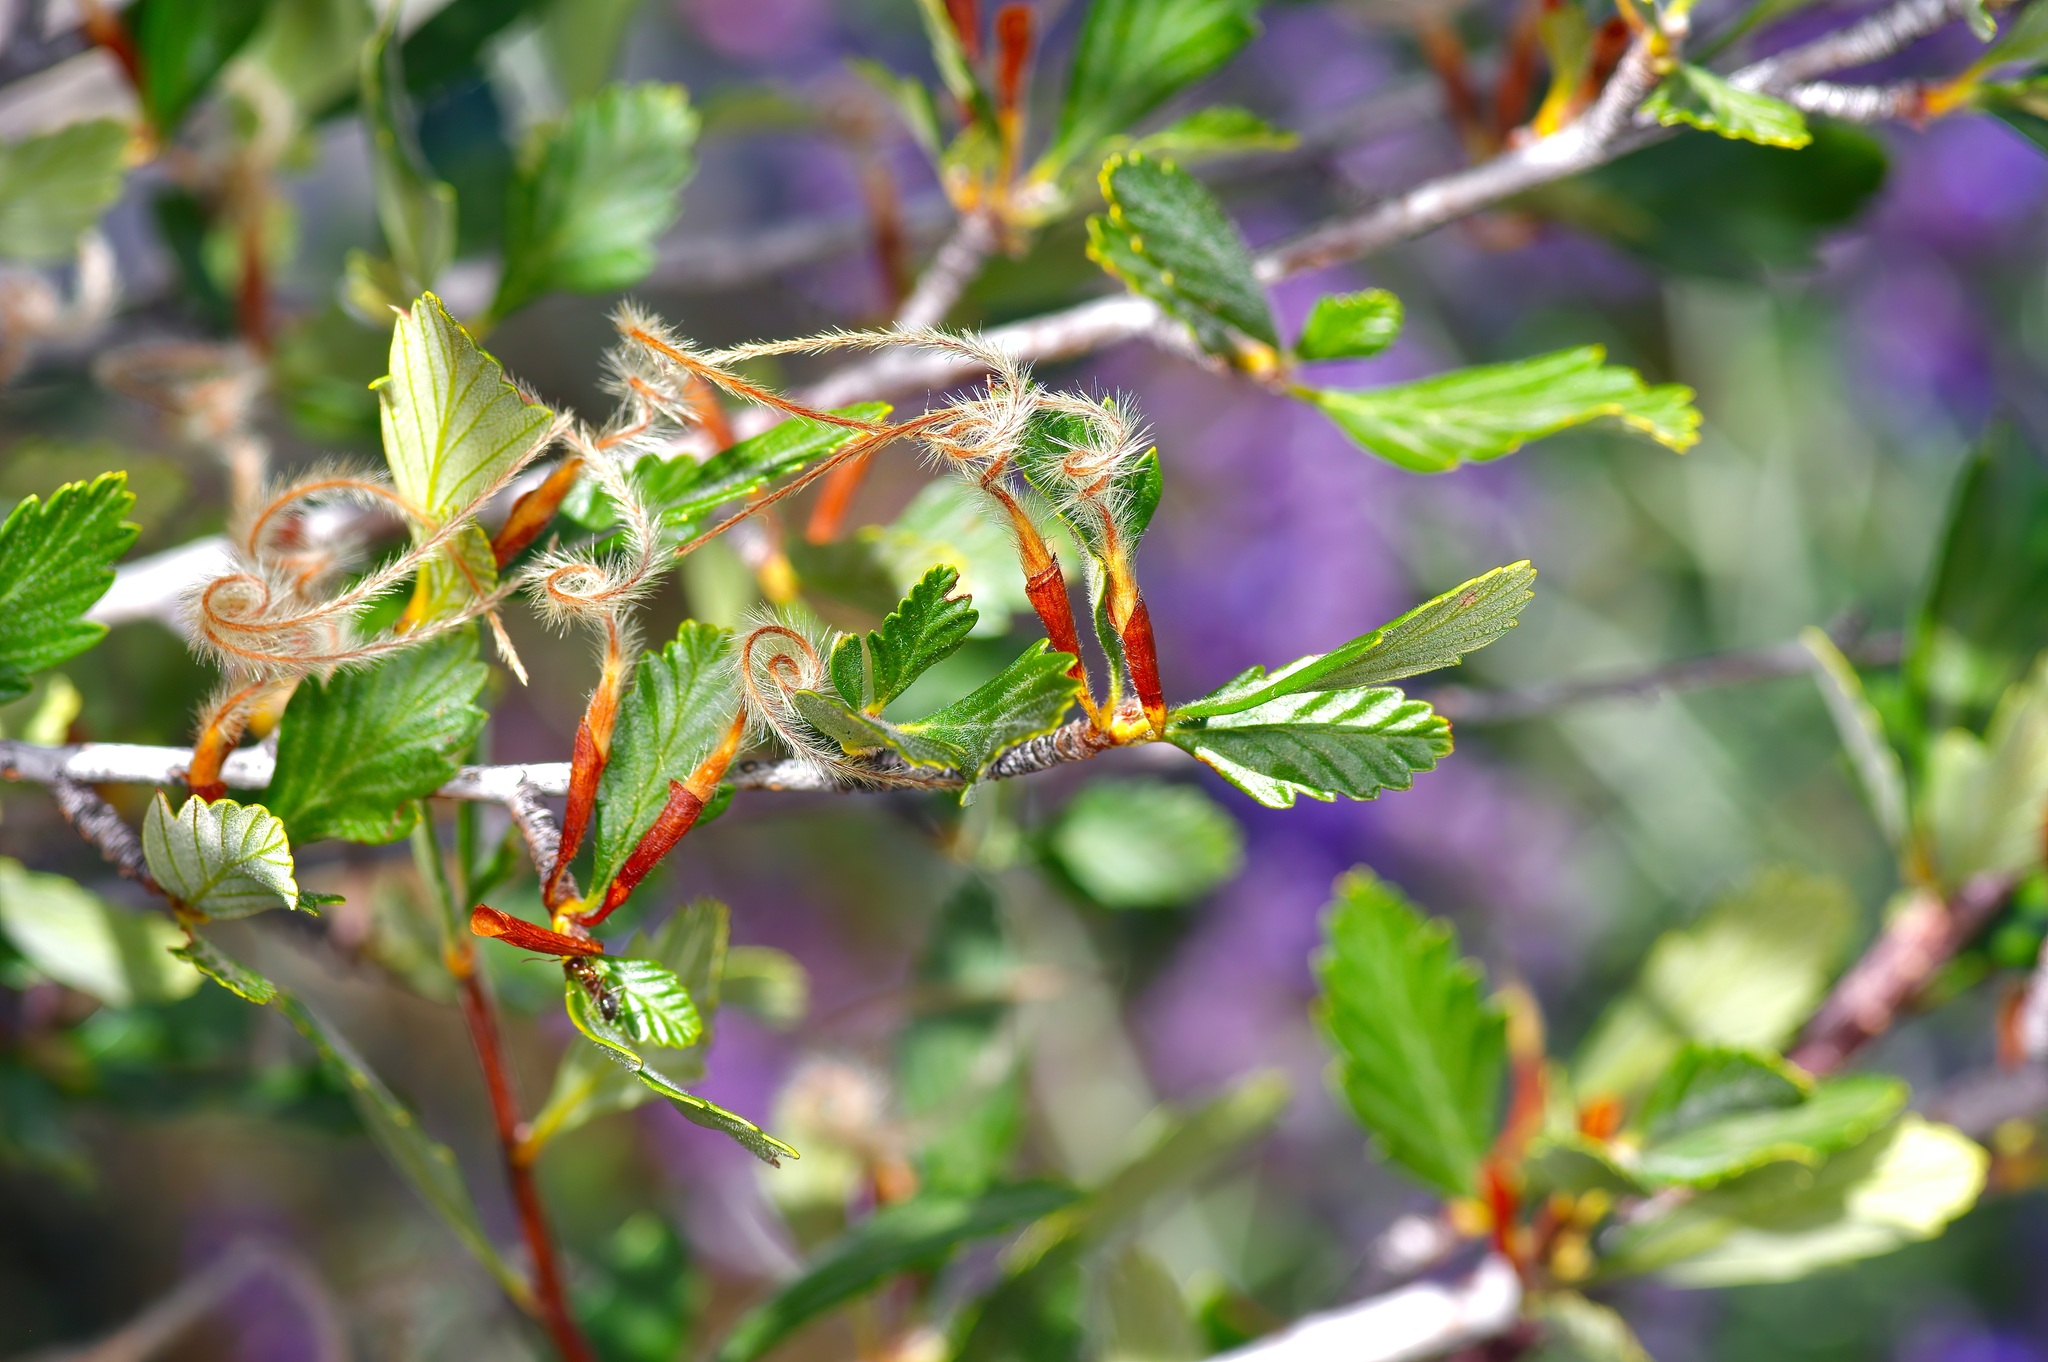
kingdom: Plantae
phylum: Tracheophyta
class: Magnoliopsida
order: Rosales
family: Rosaceae
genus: Cercocarpus
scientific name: Cercocarpus montanus
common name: Alder-leaf cercocarpus
